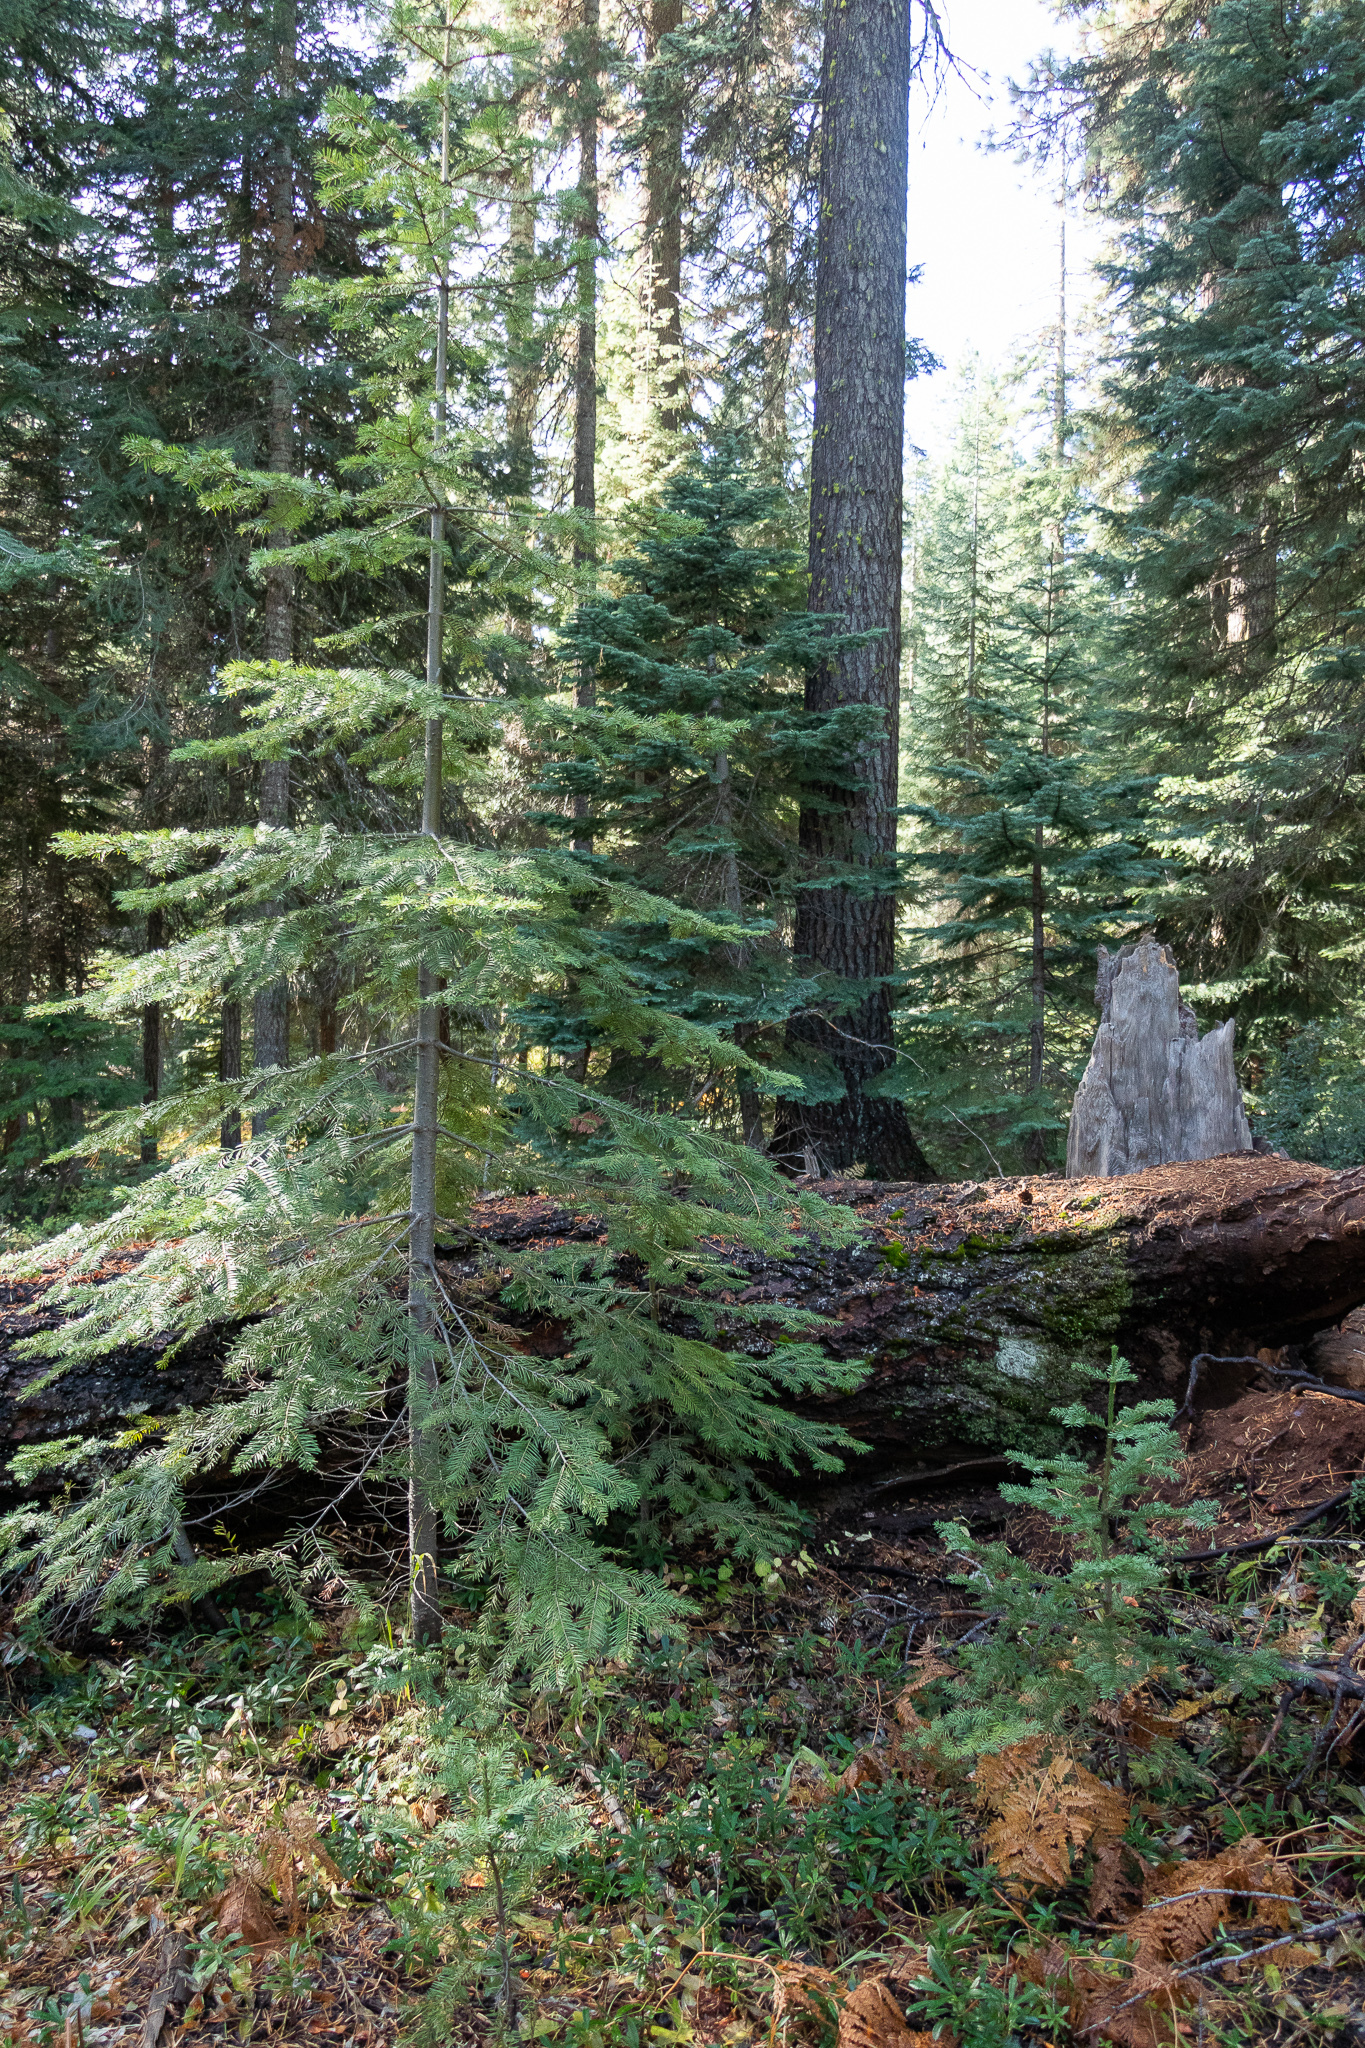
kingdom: Fungi
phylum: Ascomycota
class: Pezizomycetes
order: Pezizales
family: Tuberaceae
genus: Tuber
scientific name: Tuber anniae
